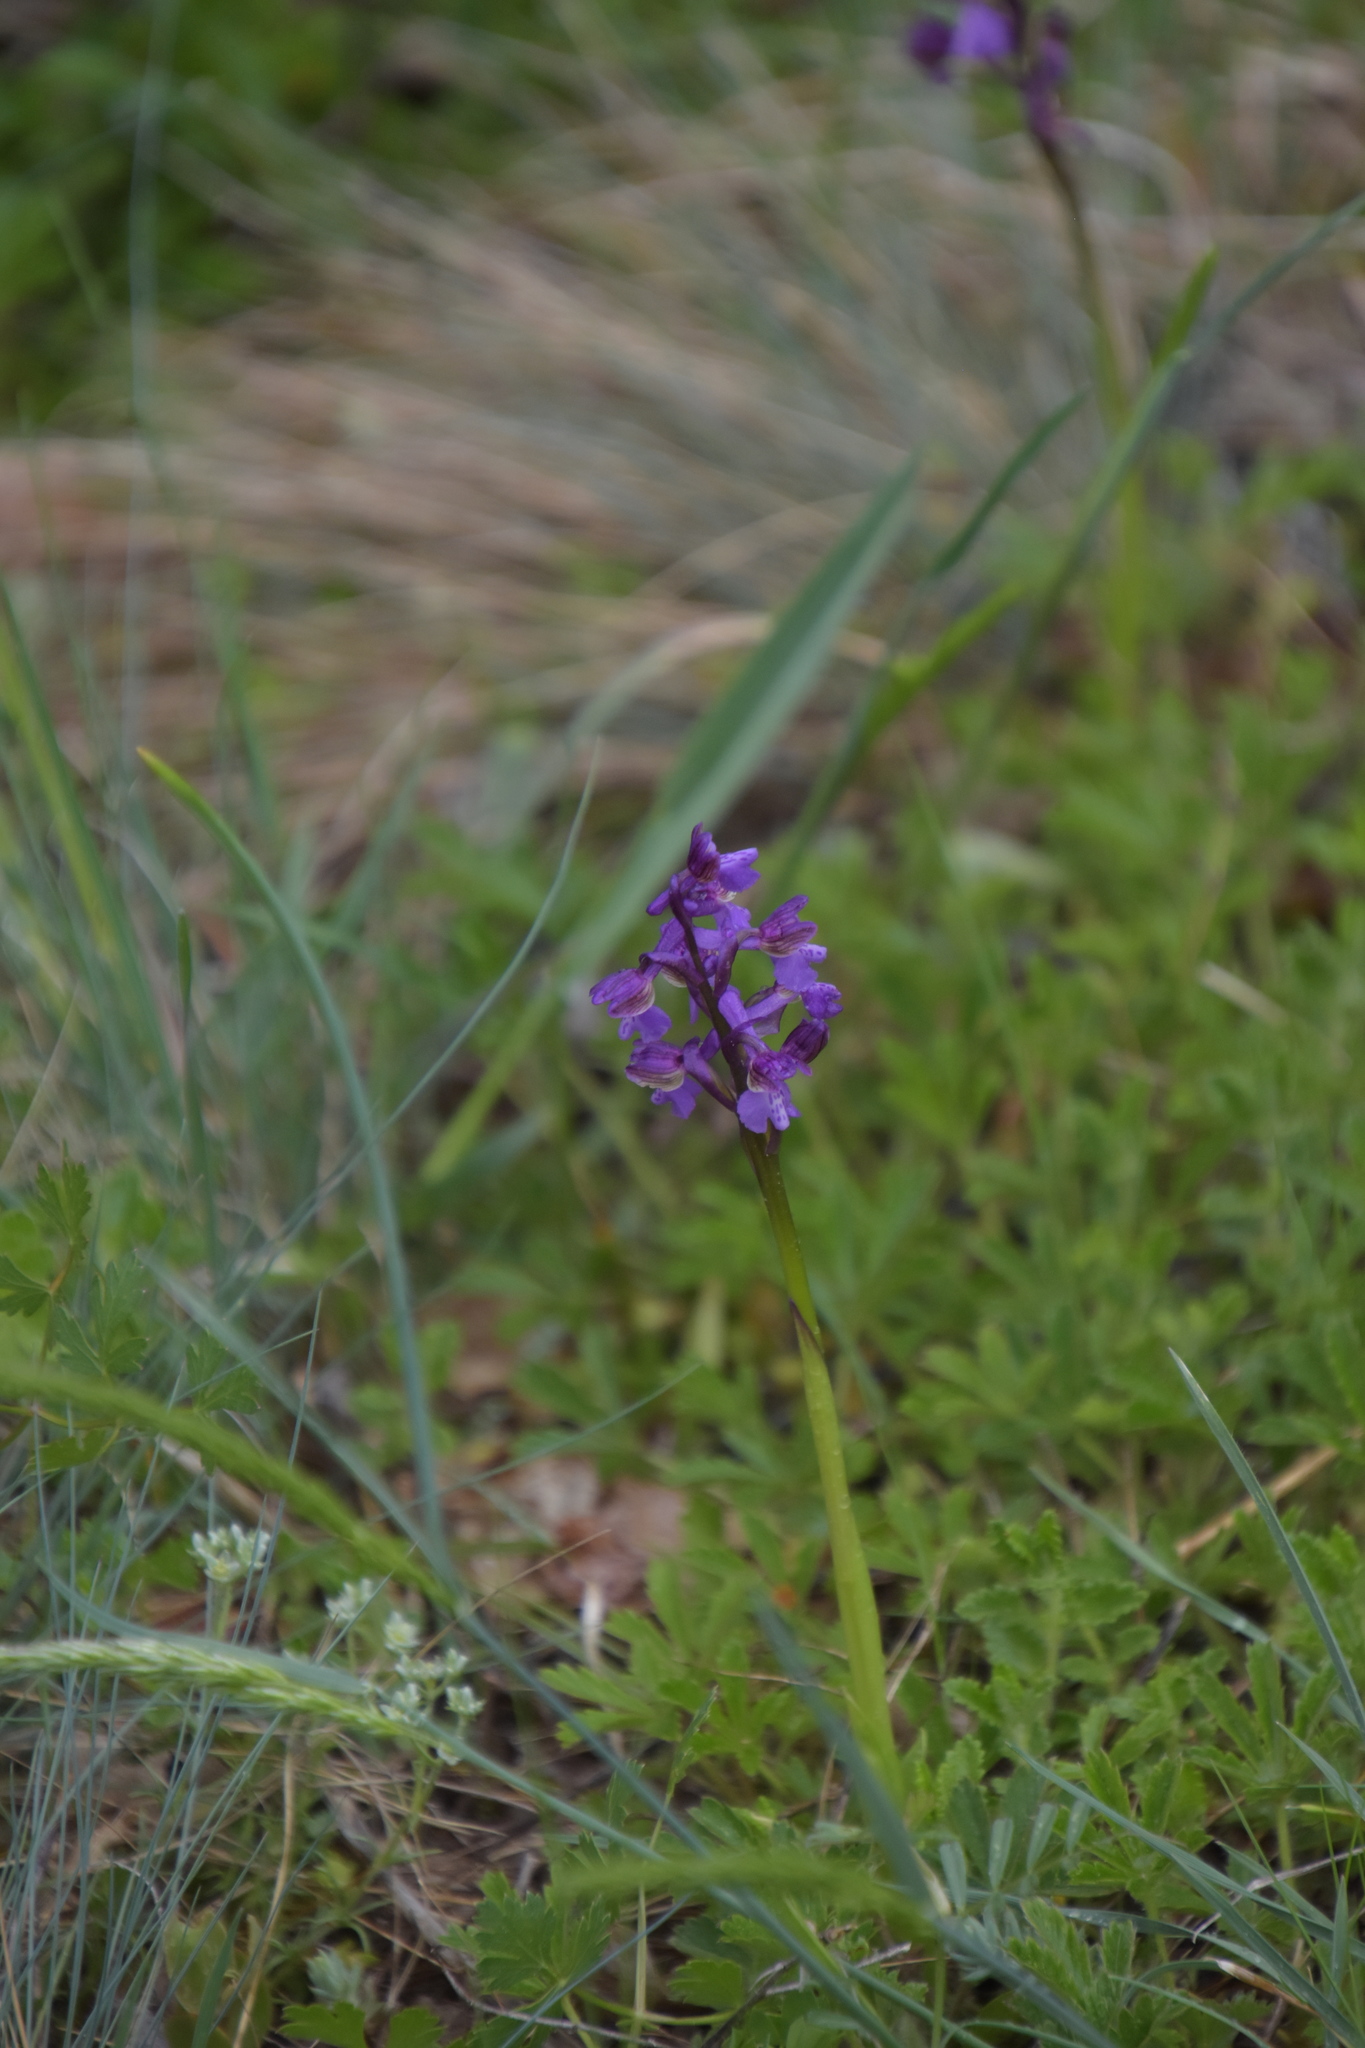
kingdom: Plantae
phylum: Tracheophyta
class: Liliopsida
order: Asparagales
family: Orchidaceae
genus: Anacamptis
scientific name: Anacamptis morio
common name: Green-winged orchid
